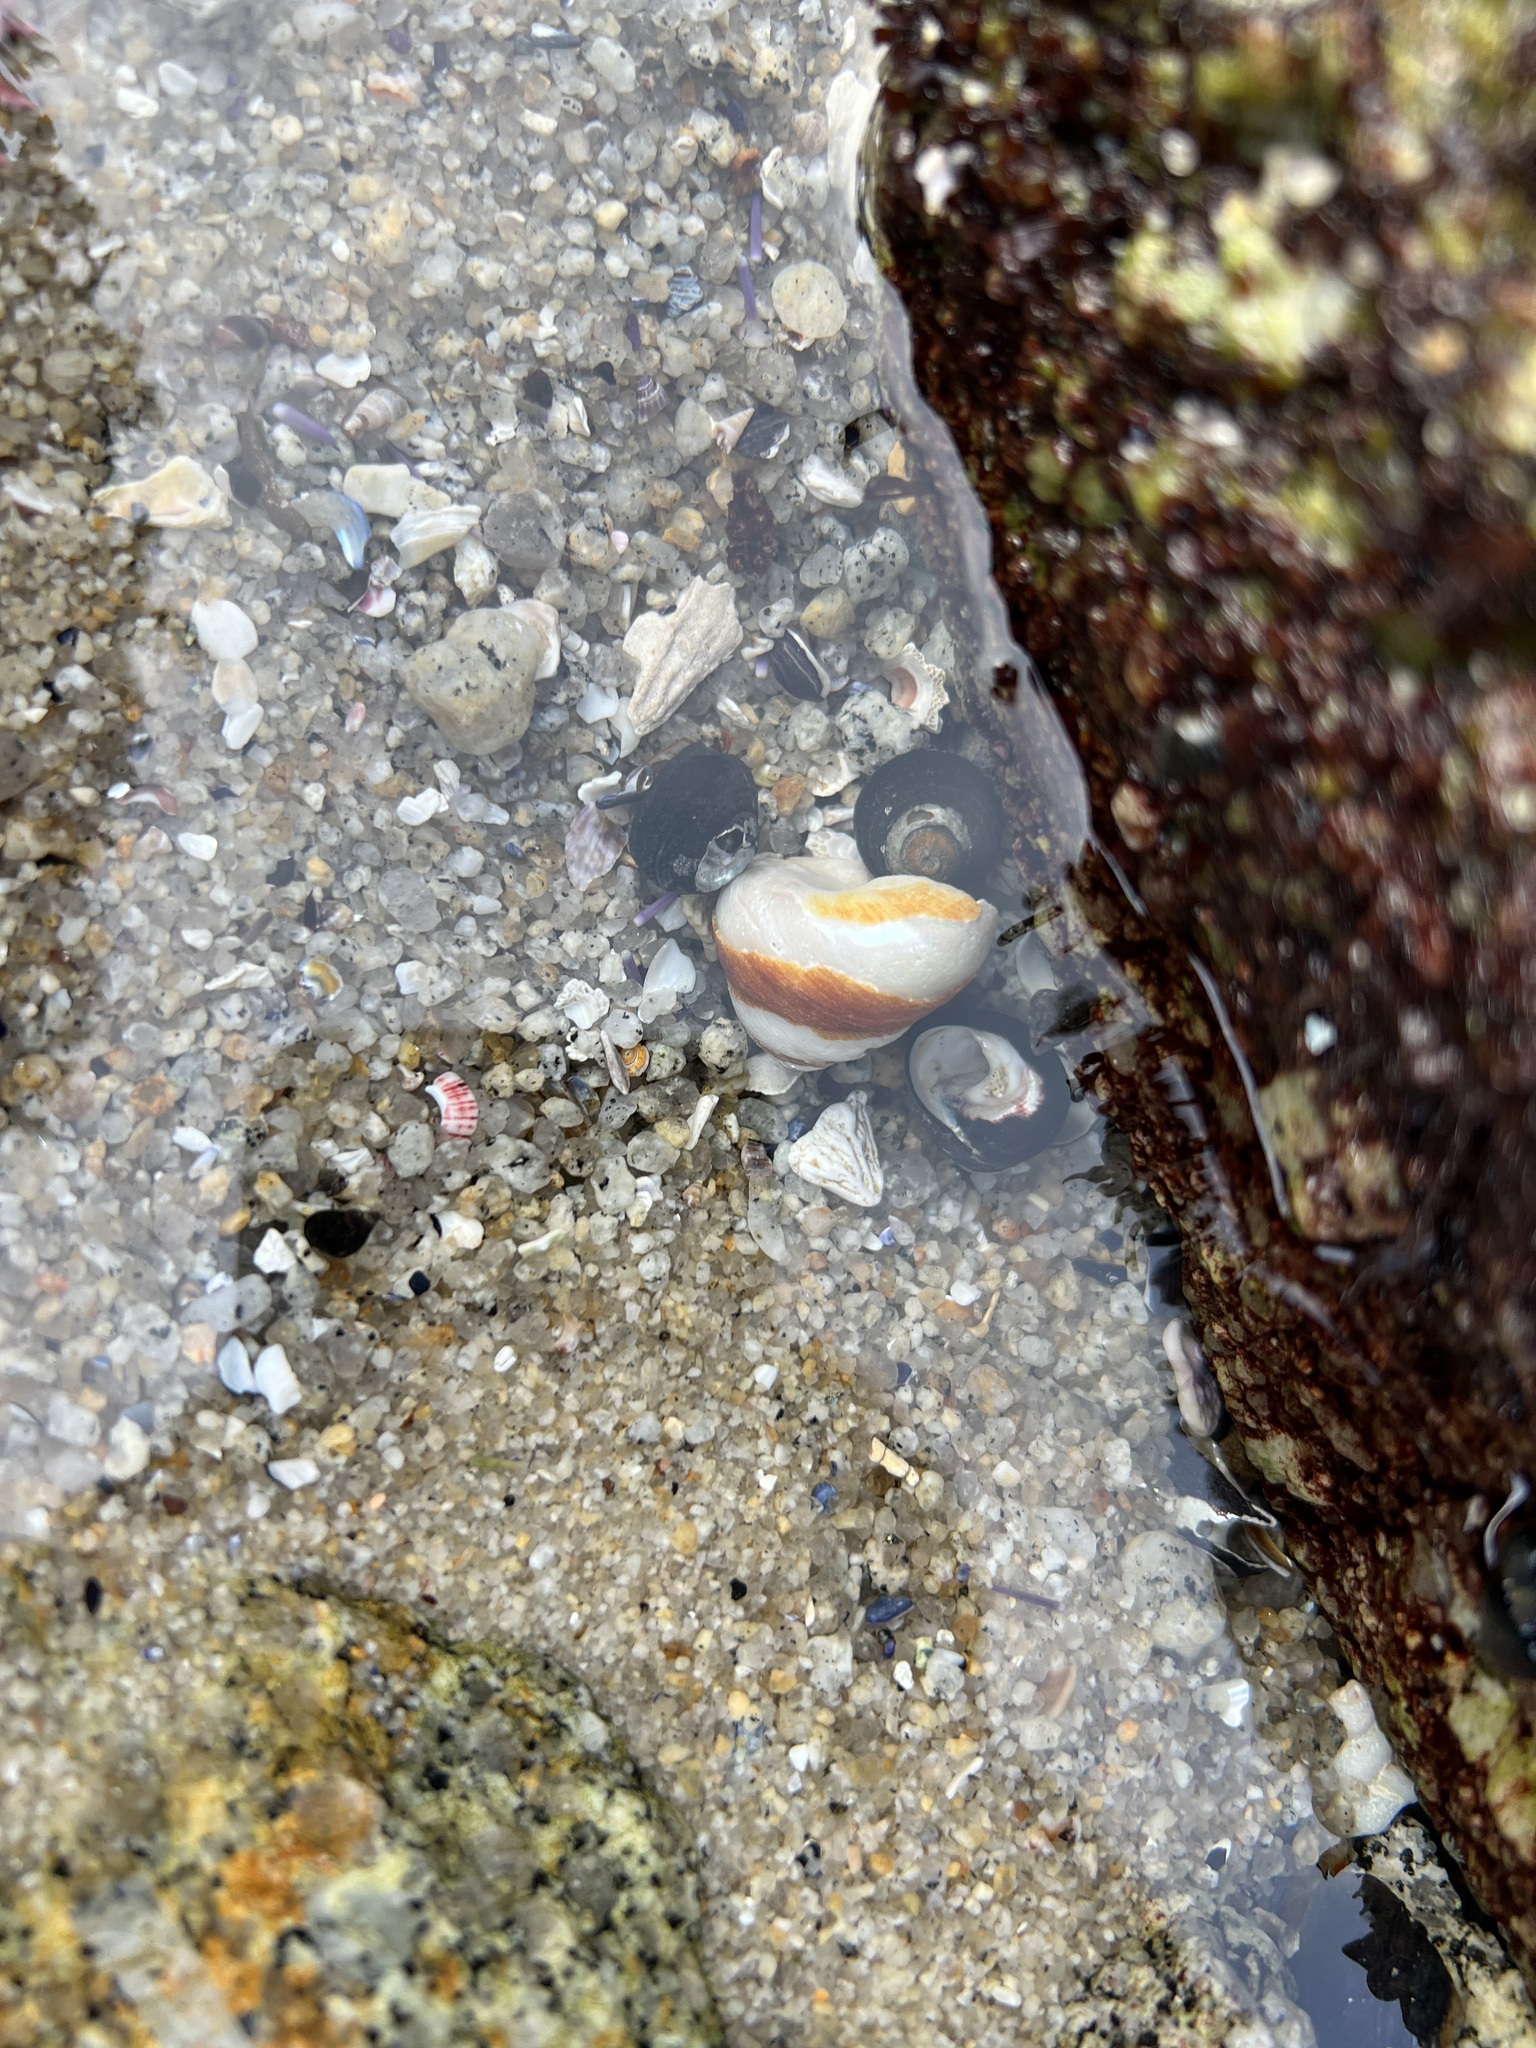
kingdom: Animalia
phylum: Mollusca
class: Gastropoda
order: Trochida
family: Tegulidae
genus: Tegula
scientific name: Tegula brunnea
